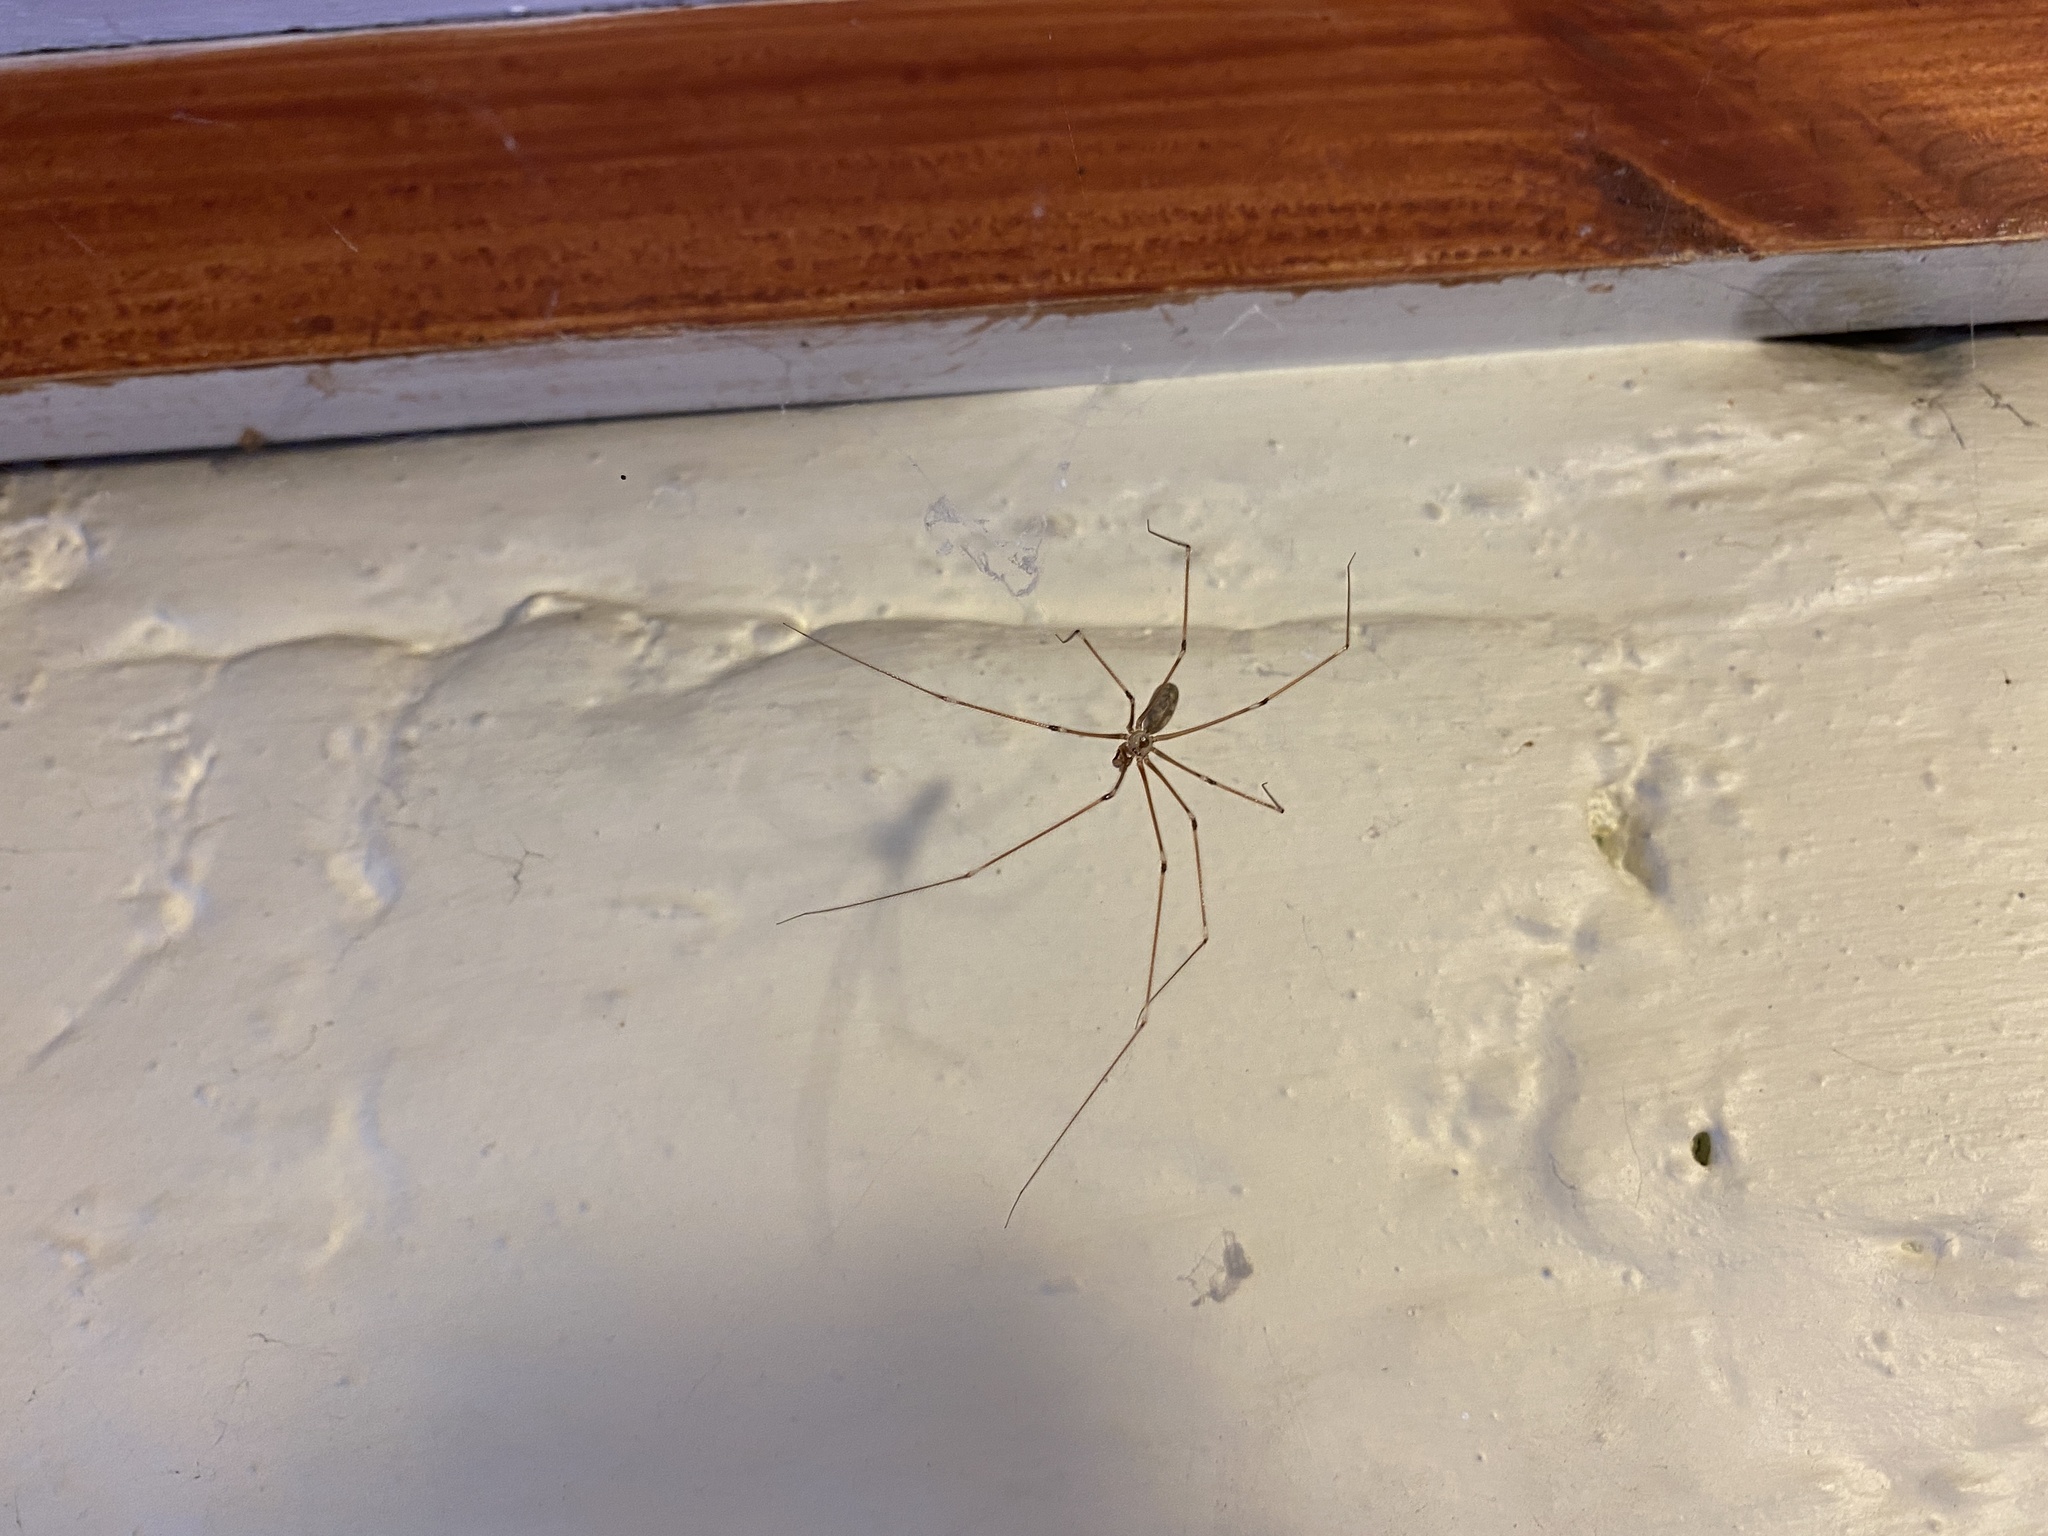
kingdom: Animalia
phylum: Arthropoda
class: Arachnida
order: Araneae
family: Pholcidae
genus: Pholcus
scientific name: Pholcus phalangioides
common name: Longbodied cellar spider
